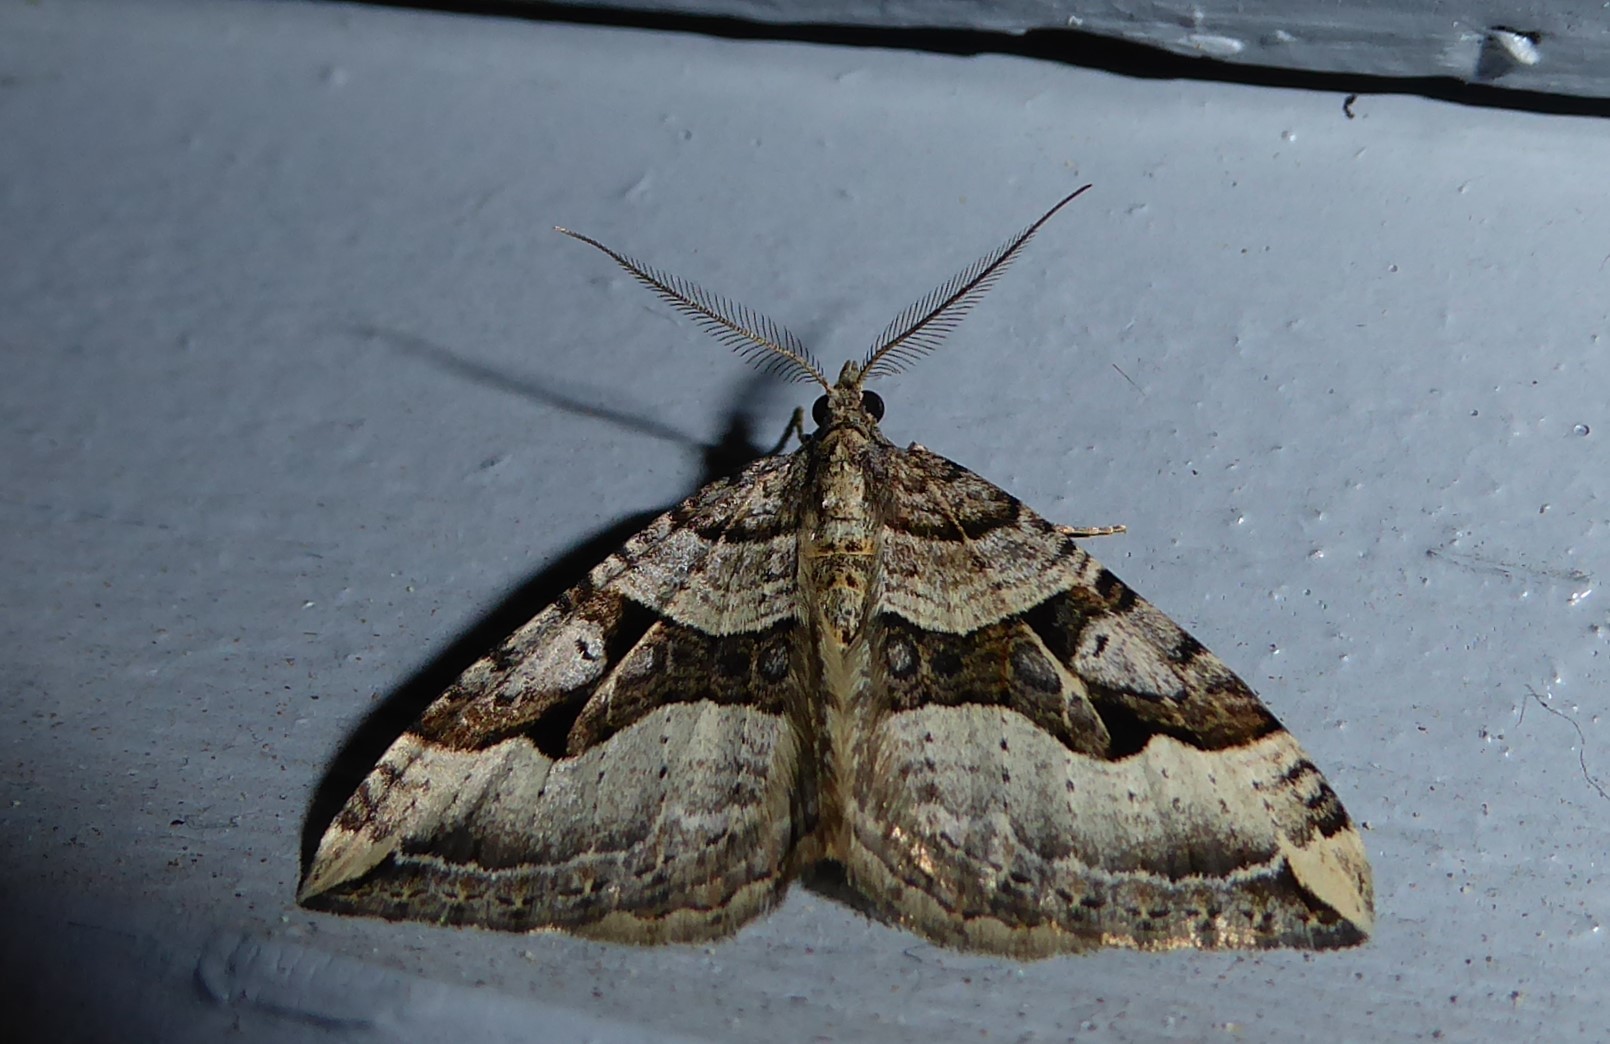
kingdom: Animalia
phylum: Arthropoda
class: Insecta
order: Lepidoptera
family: Geometridae
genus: Xanthorhoe
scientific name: Xanthorhoe semifissata
